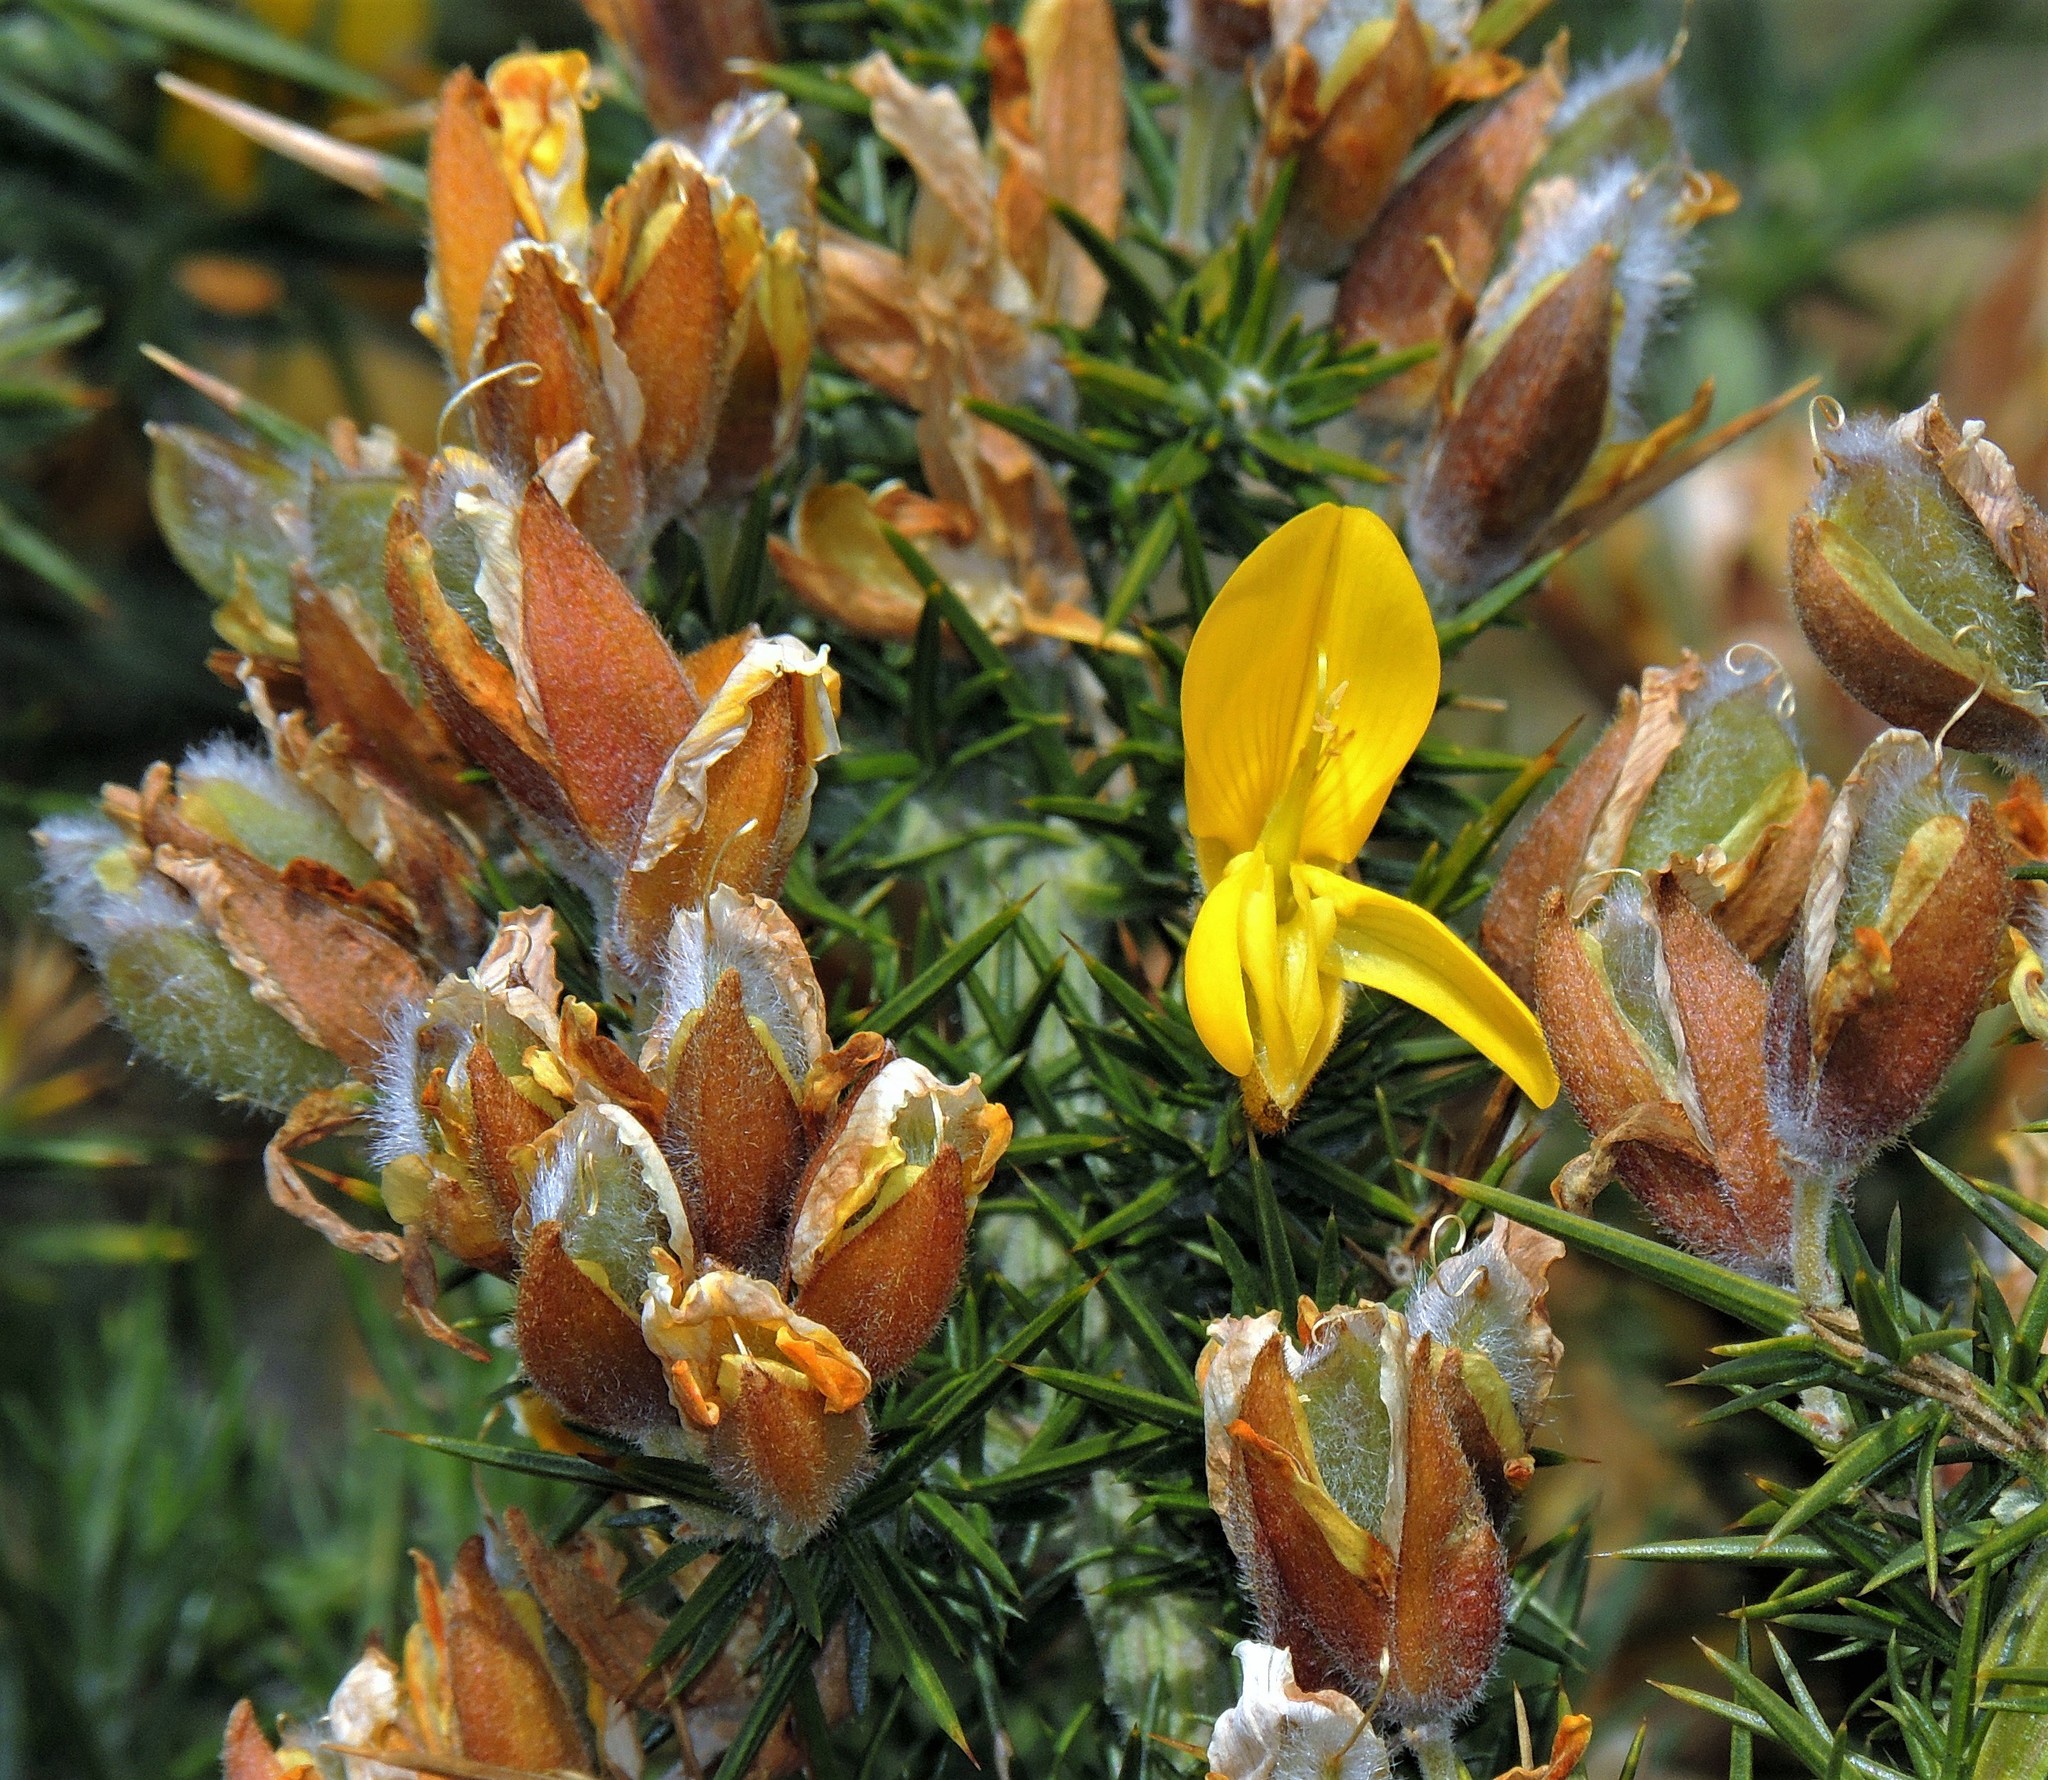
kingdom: Plantae
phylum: Tracheophyta
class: Magnoliopsida
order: Fabales
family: Fabaceae
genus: Ulex
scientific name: Ulex europaeus
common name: Common gorse
